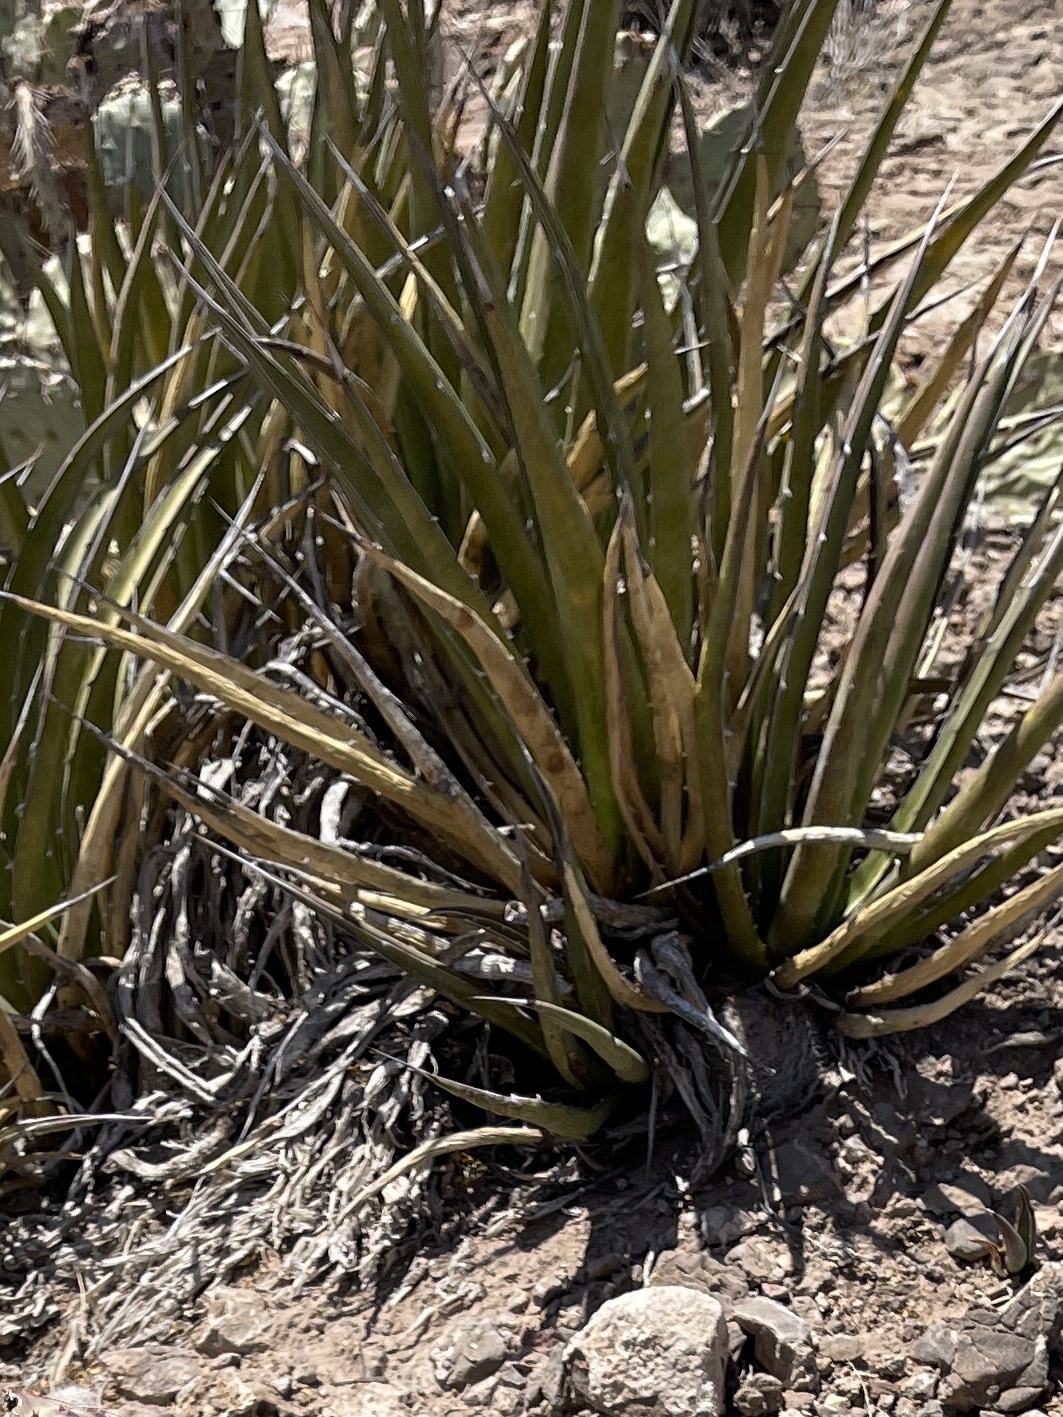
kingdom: Plantae
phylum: Tracheophyta
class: Liliopsida
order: Asparagales
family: Asparagaceae
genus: Agave
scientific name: Agave lechuguilla
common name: Lecheguilla agave
